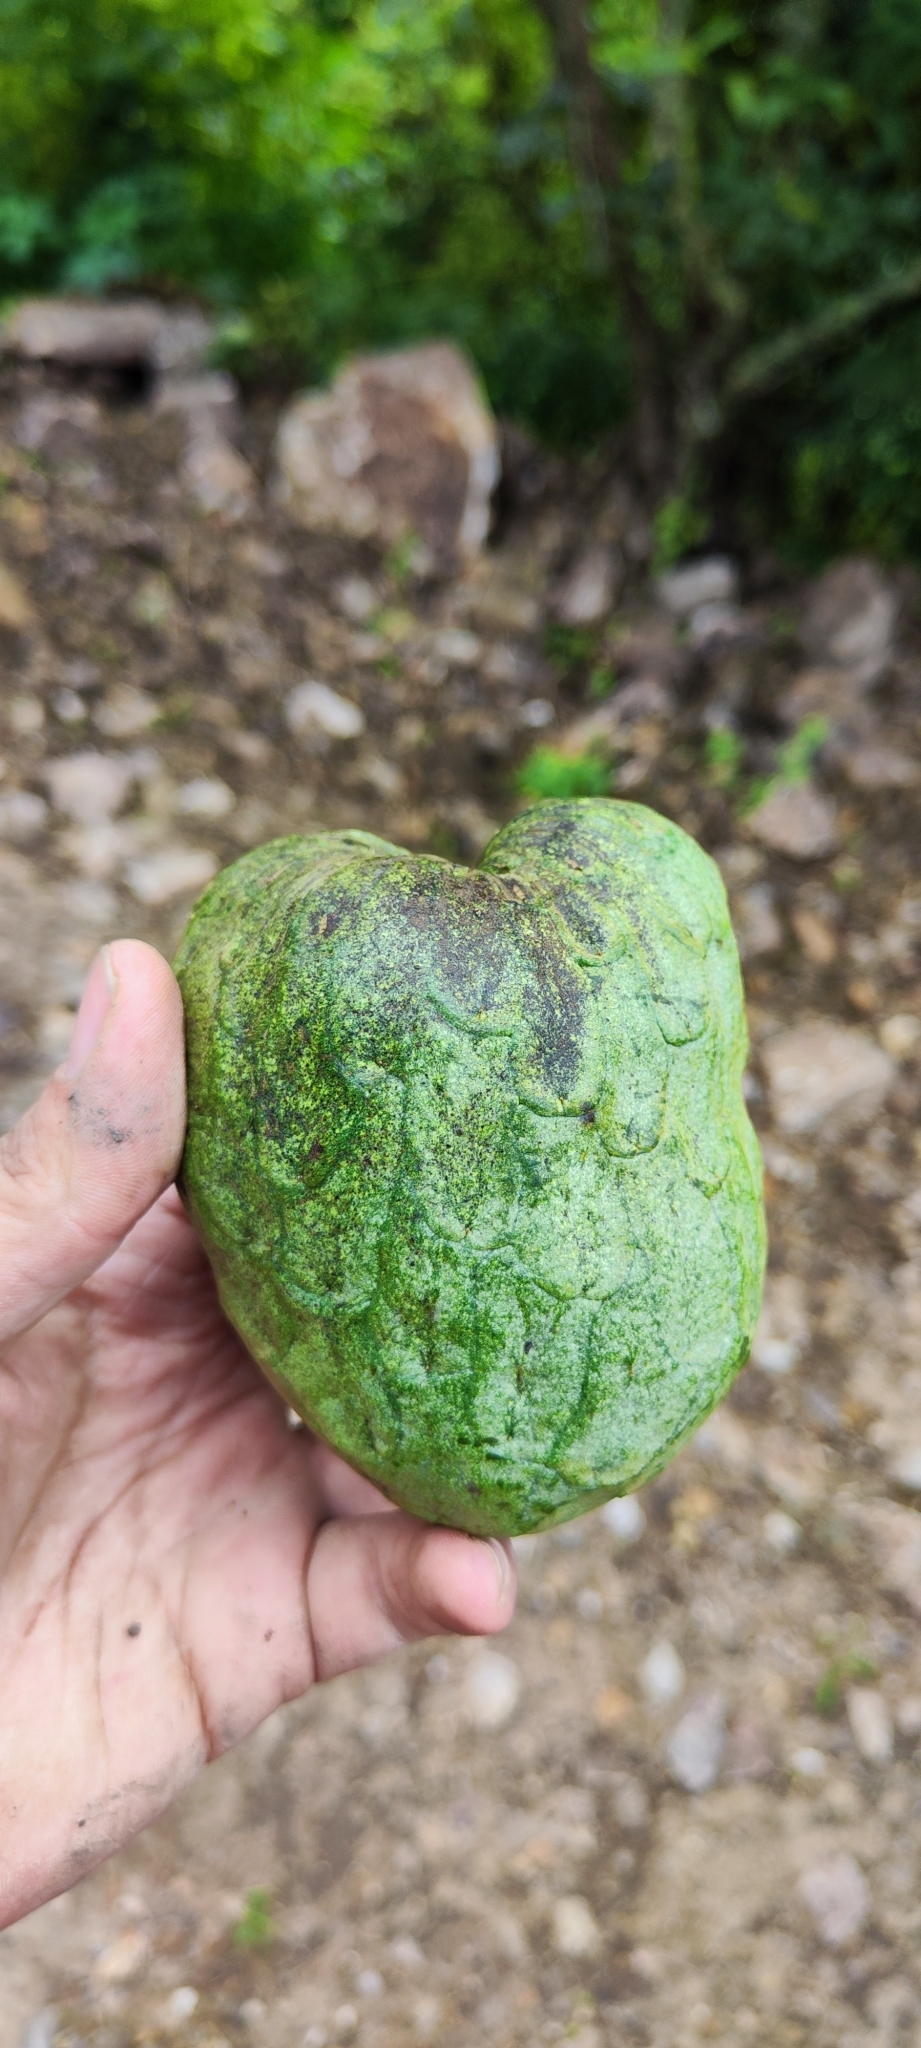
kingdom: Plantae
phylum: Tracheophyta
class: Magnoliopsida
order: Magnoliales
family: Annonaceae
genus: Annona
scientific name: Annona cherimola
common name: Cherimoya
